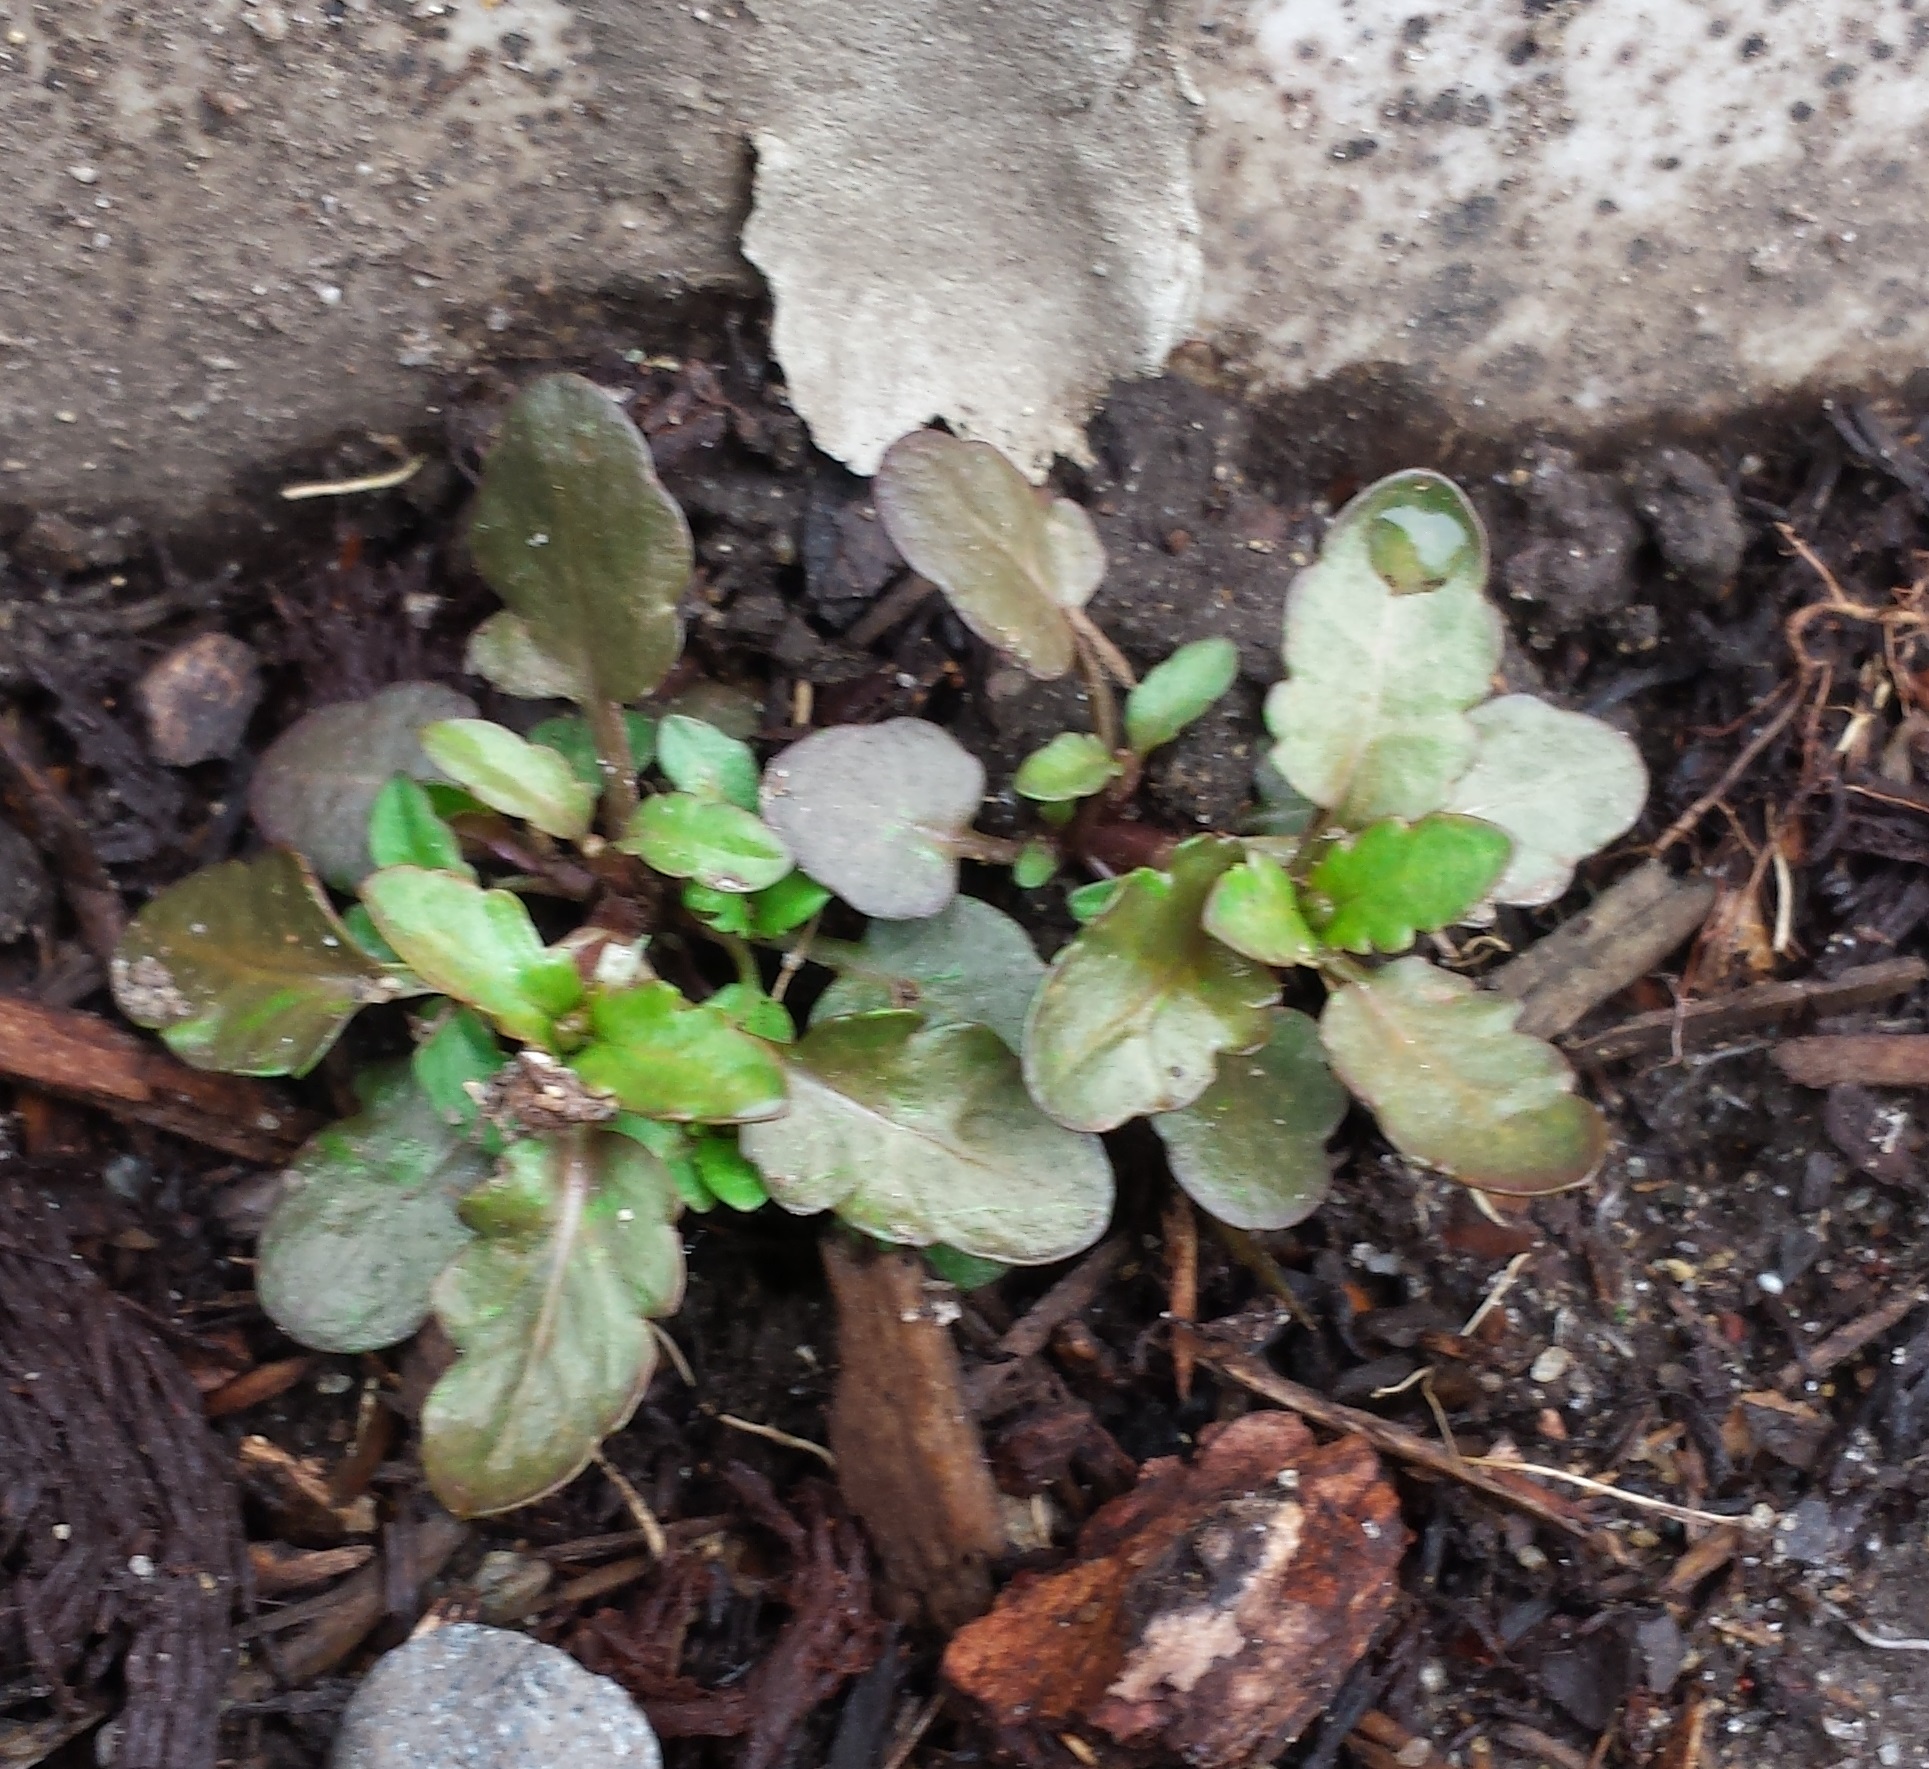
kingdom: Plantae
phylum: Tracheophyta
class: Magnoliopsida
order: Lamiales
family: Plantaginaceae
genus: Veronica
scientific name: Veronica peregrina
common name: Neckweed
